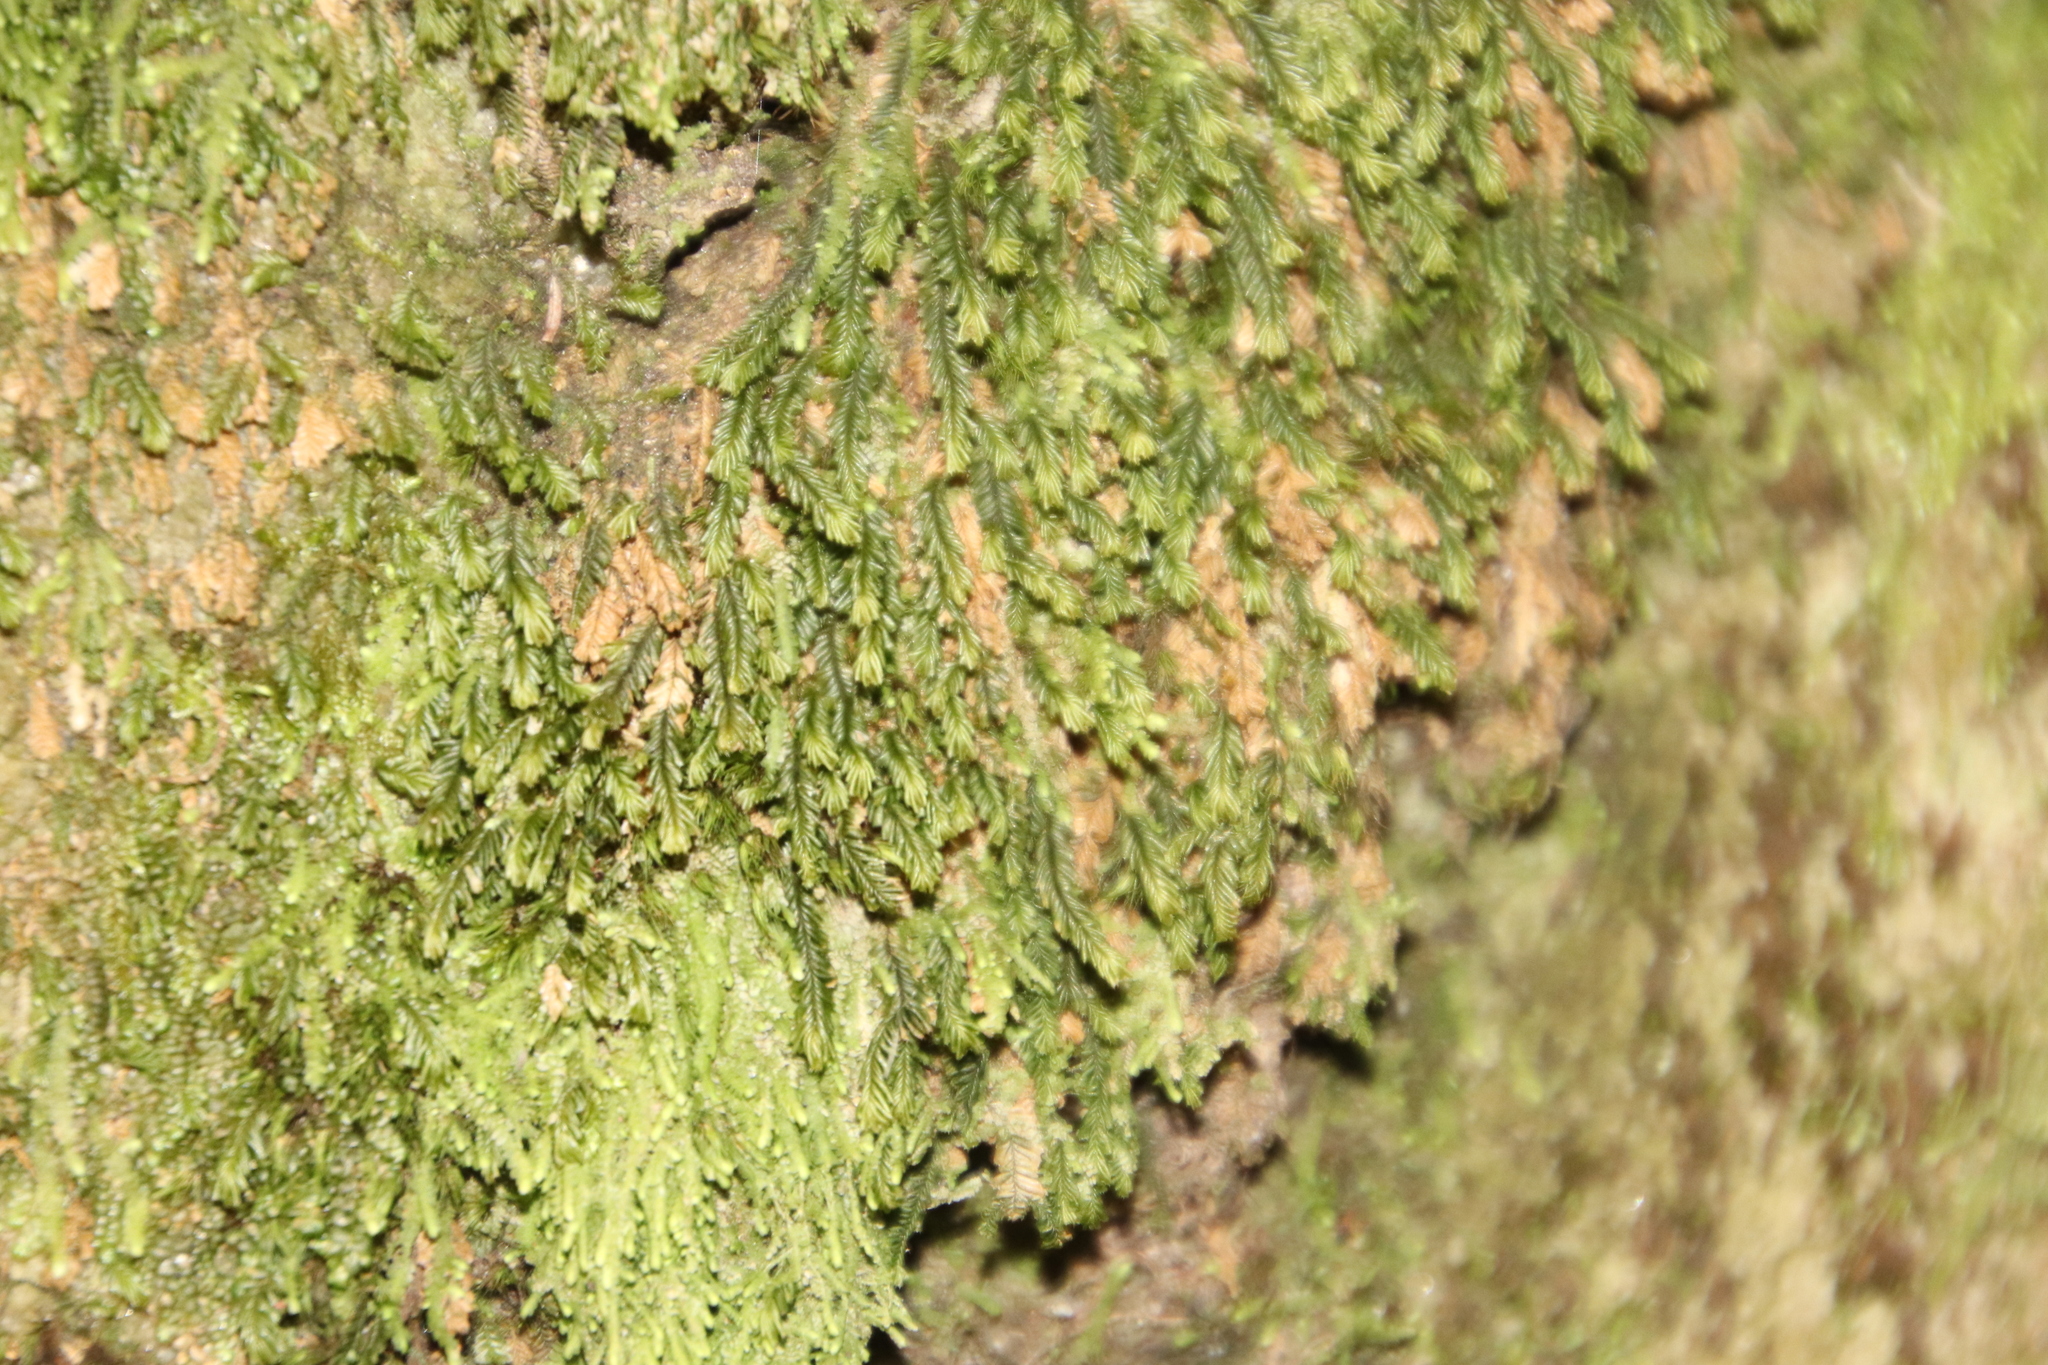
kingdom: Plantae
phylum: Marchantiophyta
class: Jungermanniopsida
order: Porellales
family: Lejeuneaceae
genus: Lejeunea
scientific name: Lejeunea flava
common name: Yellow pouncewort
